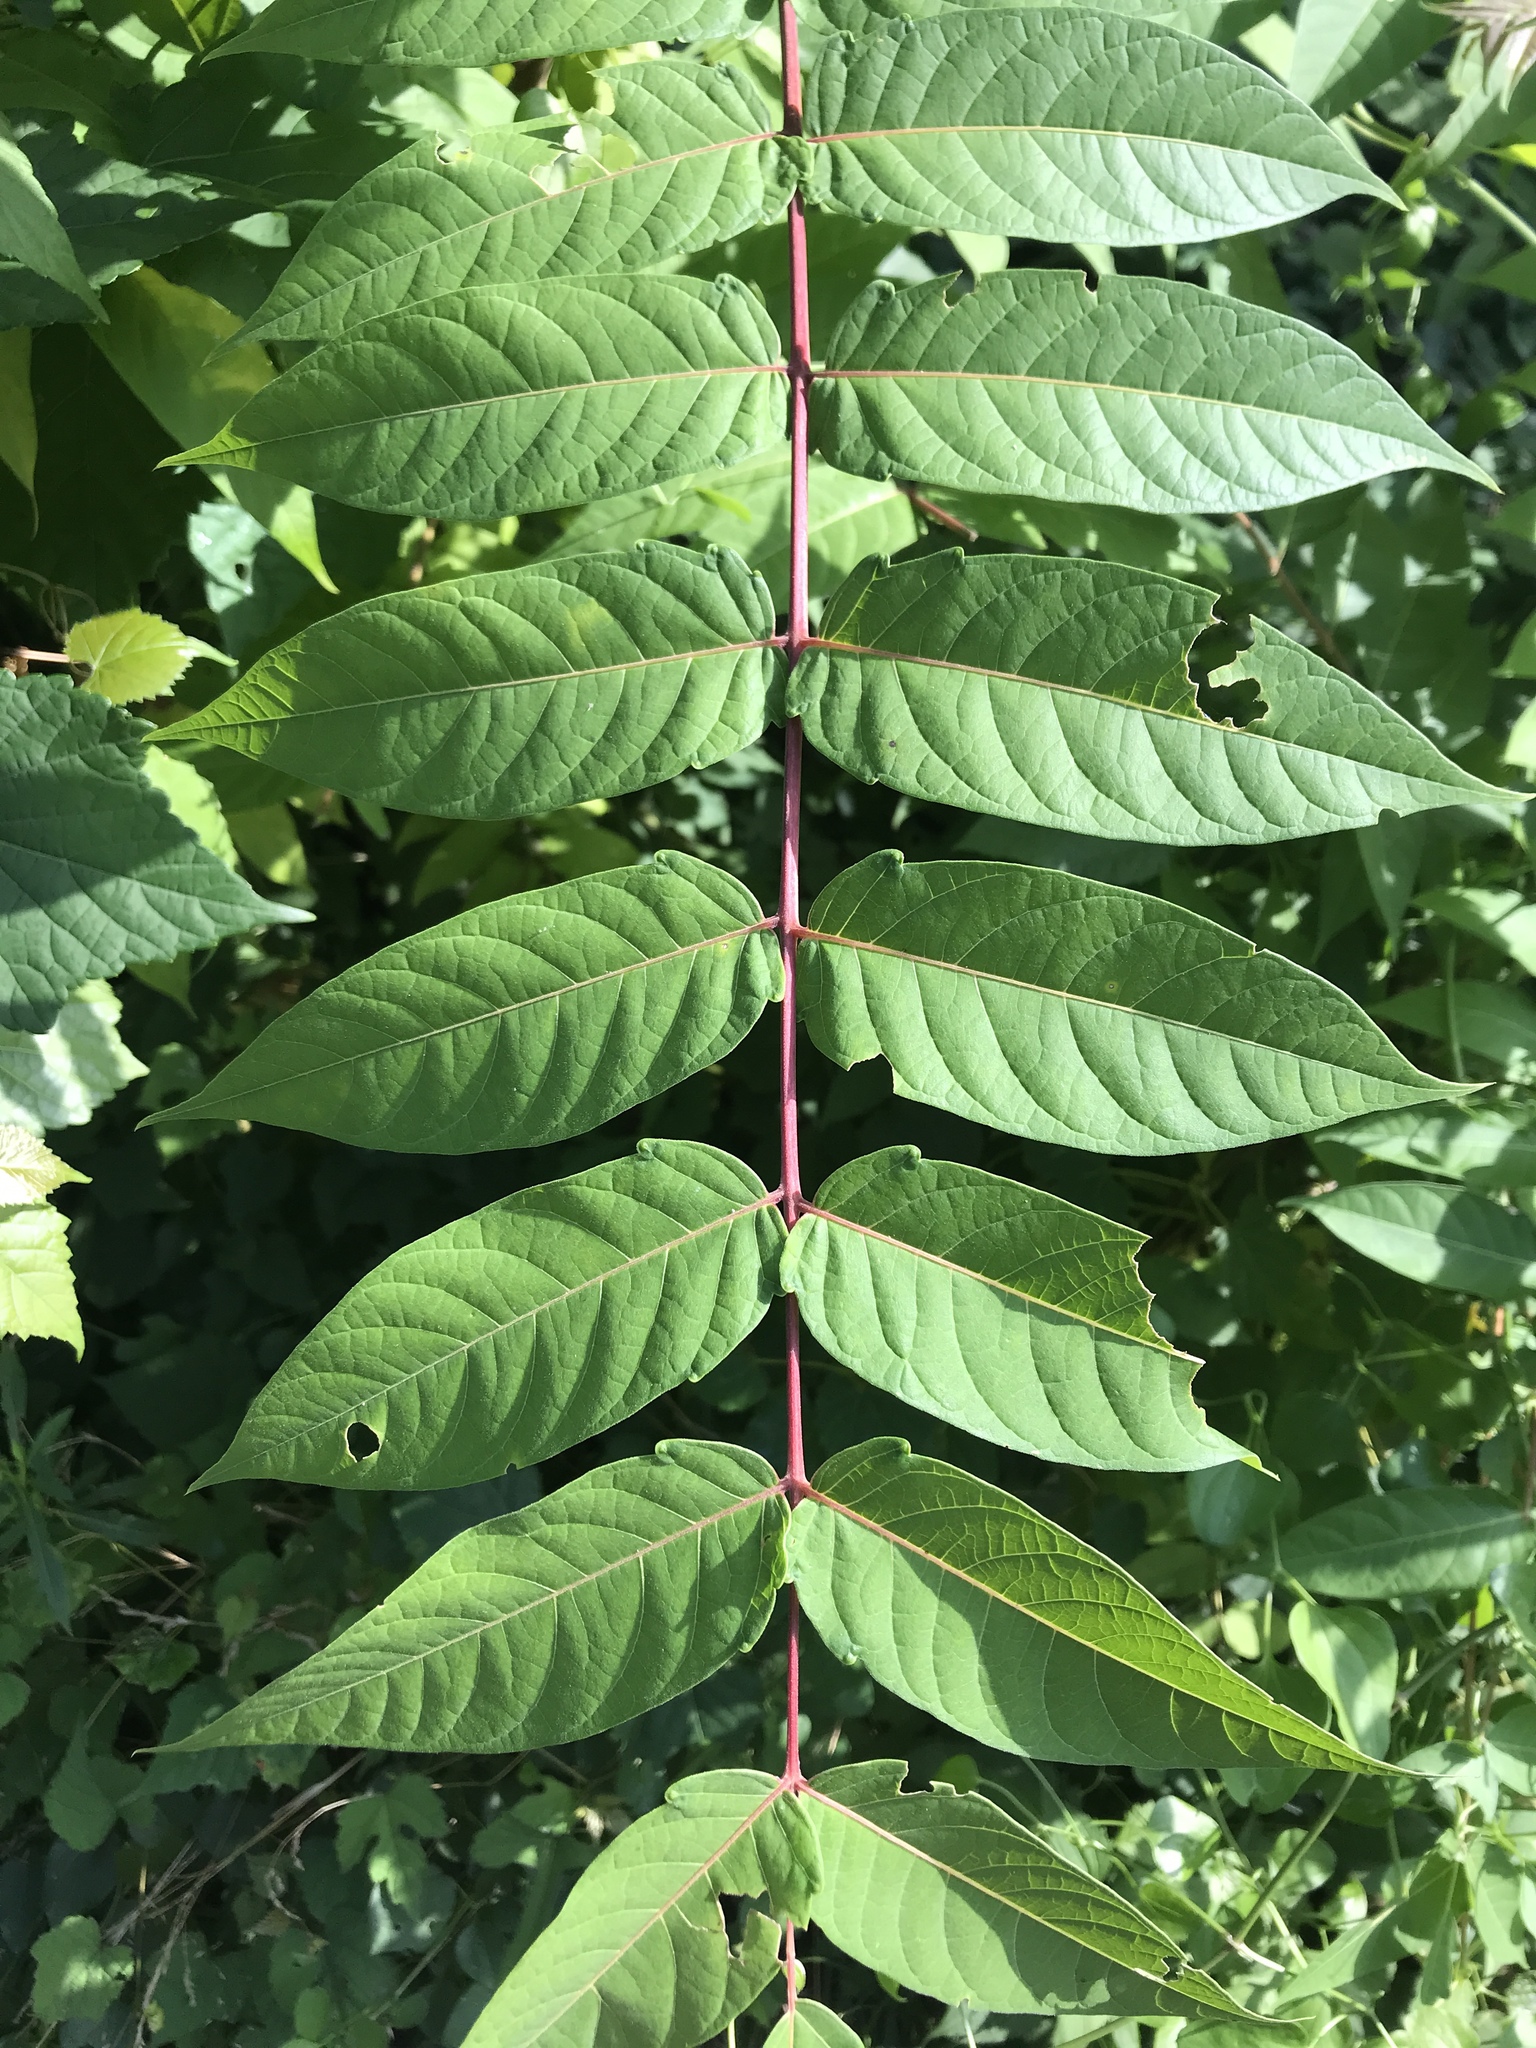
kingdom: Plantae
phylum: Tracheophyta
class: Magnoliopsida
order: Sapindales
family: Simaroubaceae
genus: Ailanthus
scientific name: Ailanthus altissima
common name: Tree-of-heaven
